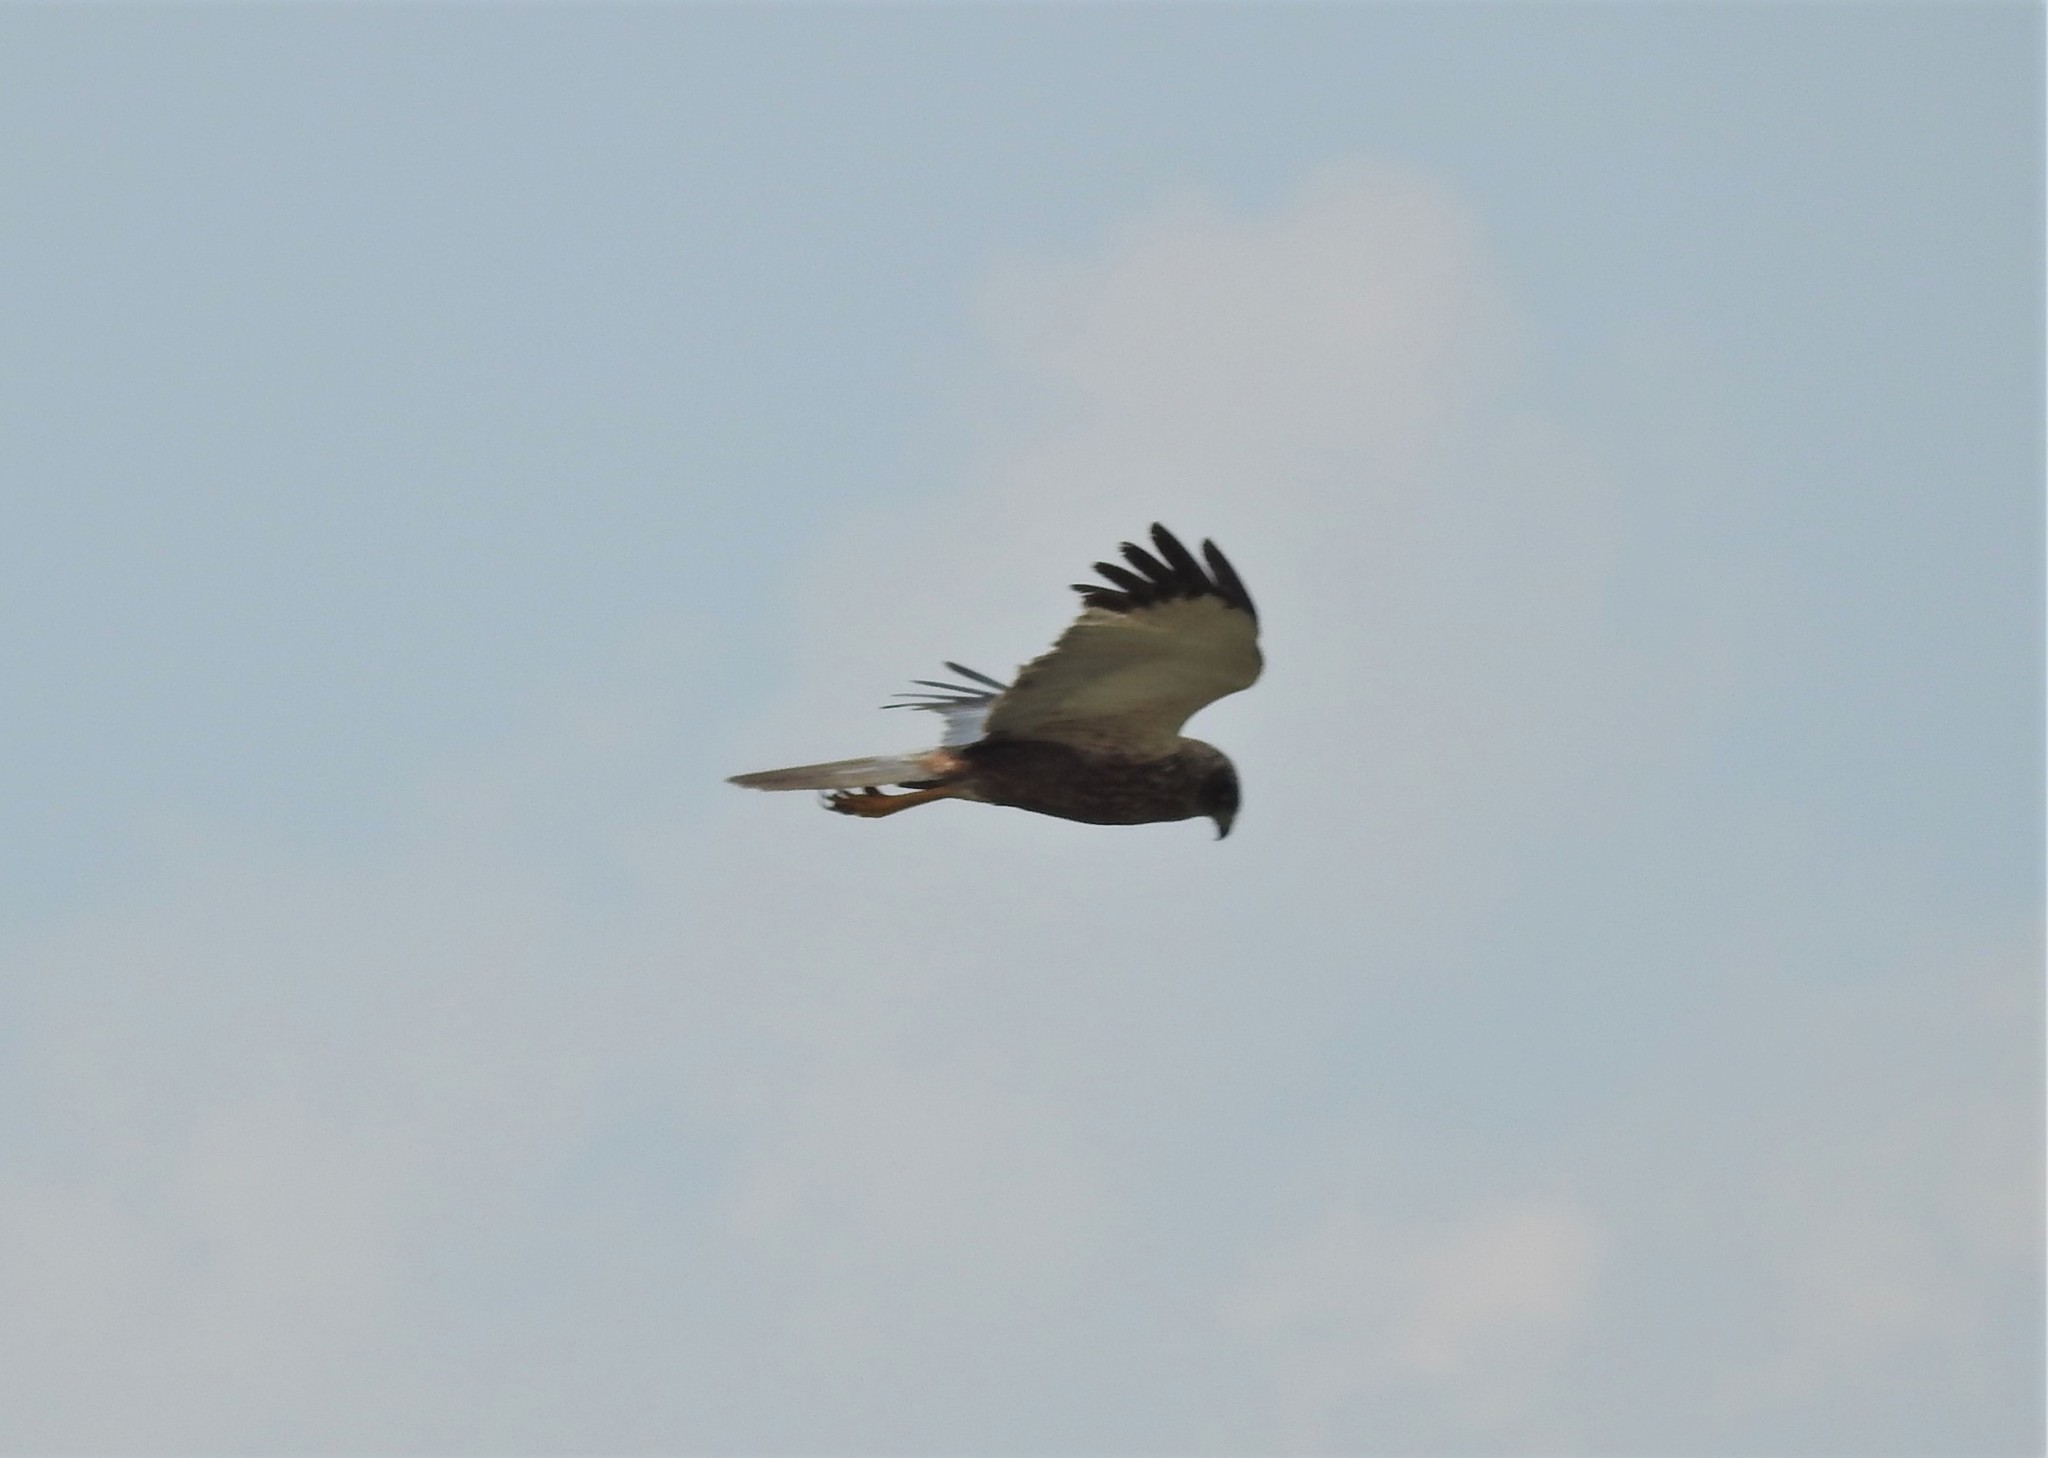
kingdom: Animalia
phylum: Chordata
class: Aves
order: Accipitriformes
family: Accipitridae
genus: Circus
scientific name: Circus aeruginosus
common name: Western marsh harrier
